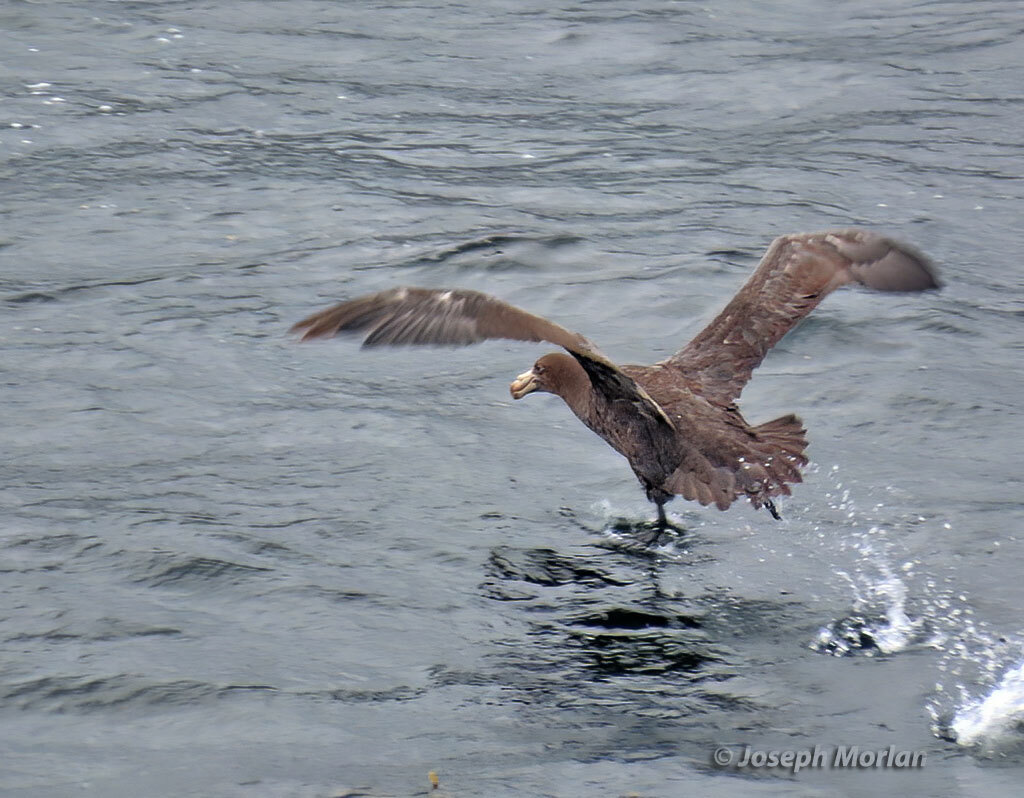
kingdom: Animalia
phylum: Chordata
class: Aves
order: Procellariiformes
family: Procellariidae
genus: Macronectes
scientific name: Macronectes halli
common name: Northern giant petrel
